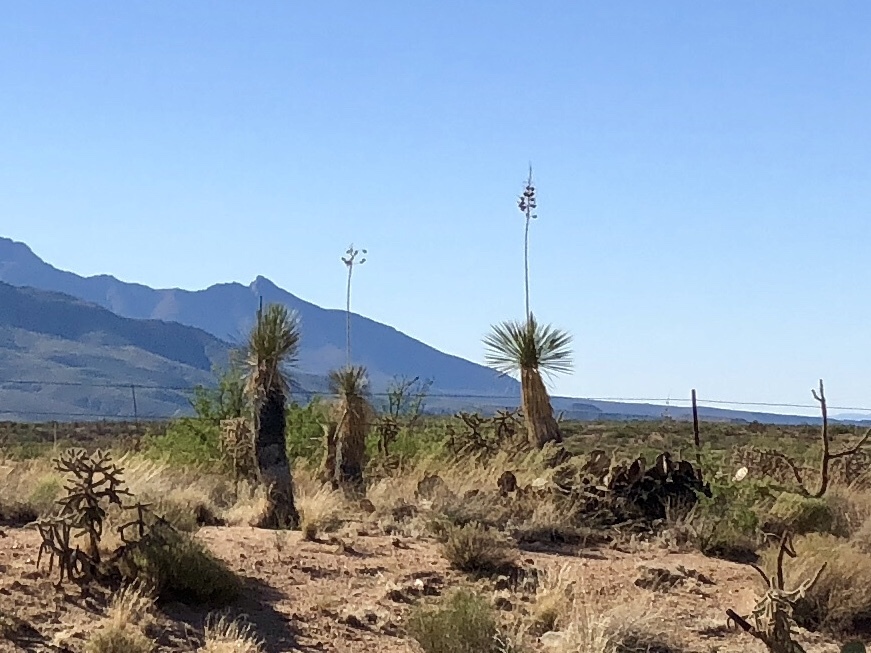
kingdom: Plantae
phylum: Tracheophyta
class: Liliopsida
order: Asparagales
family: Asparagaceae
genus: Yucca
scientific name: Yucca elata
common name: Palmella
